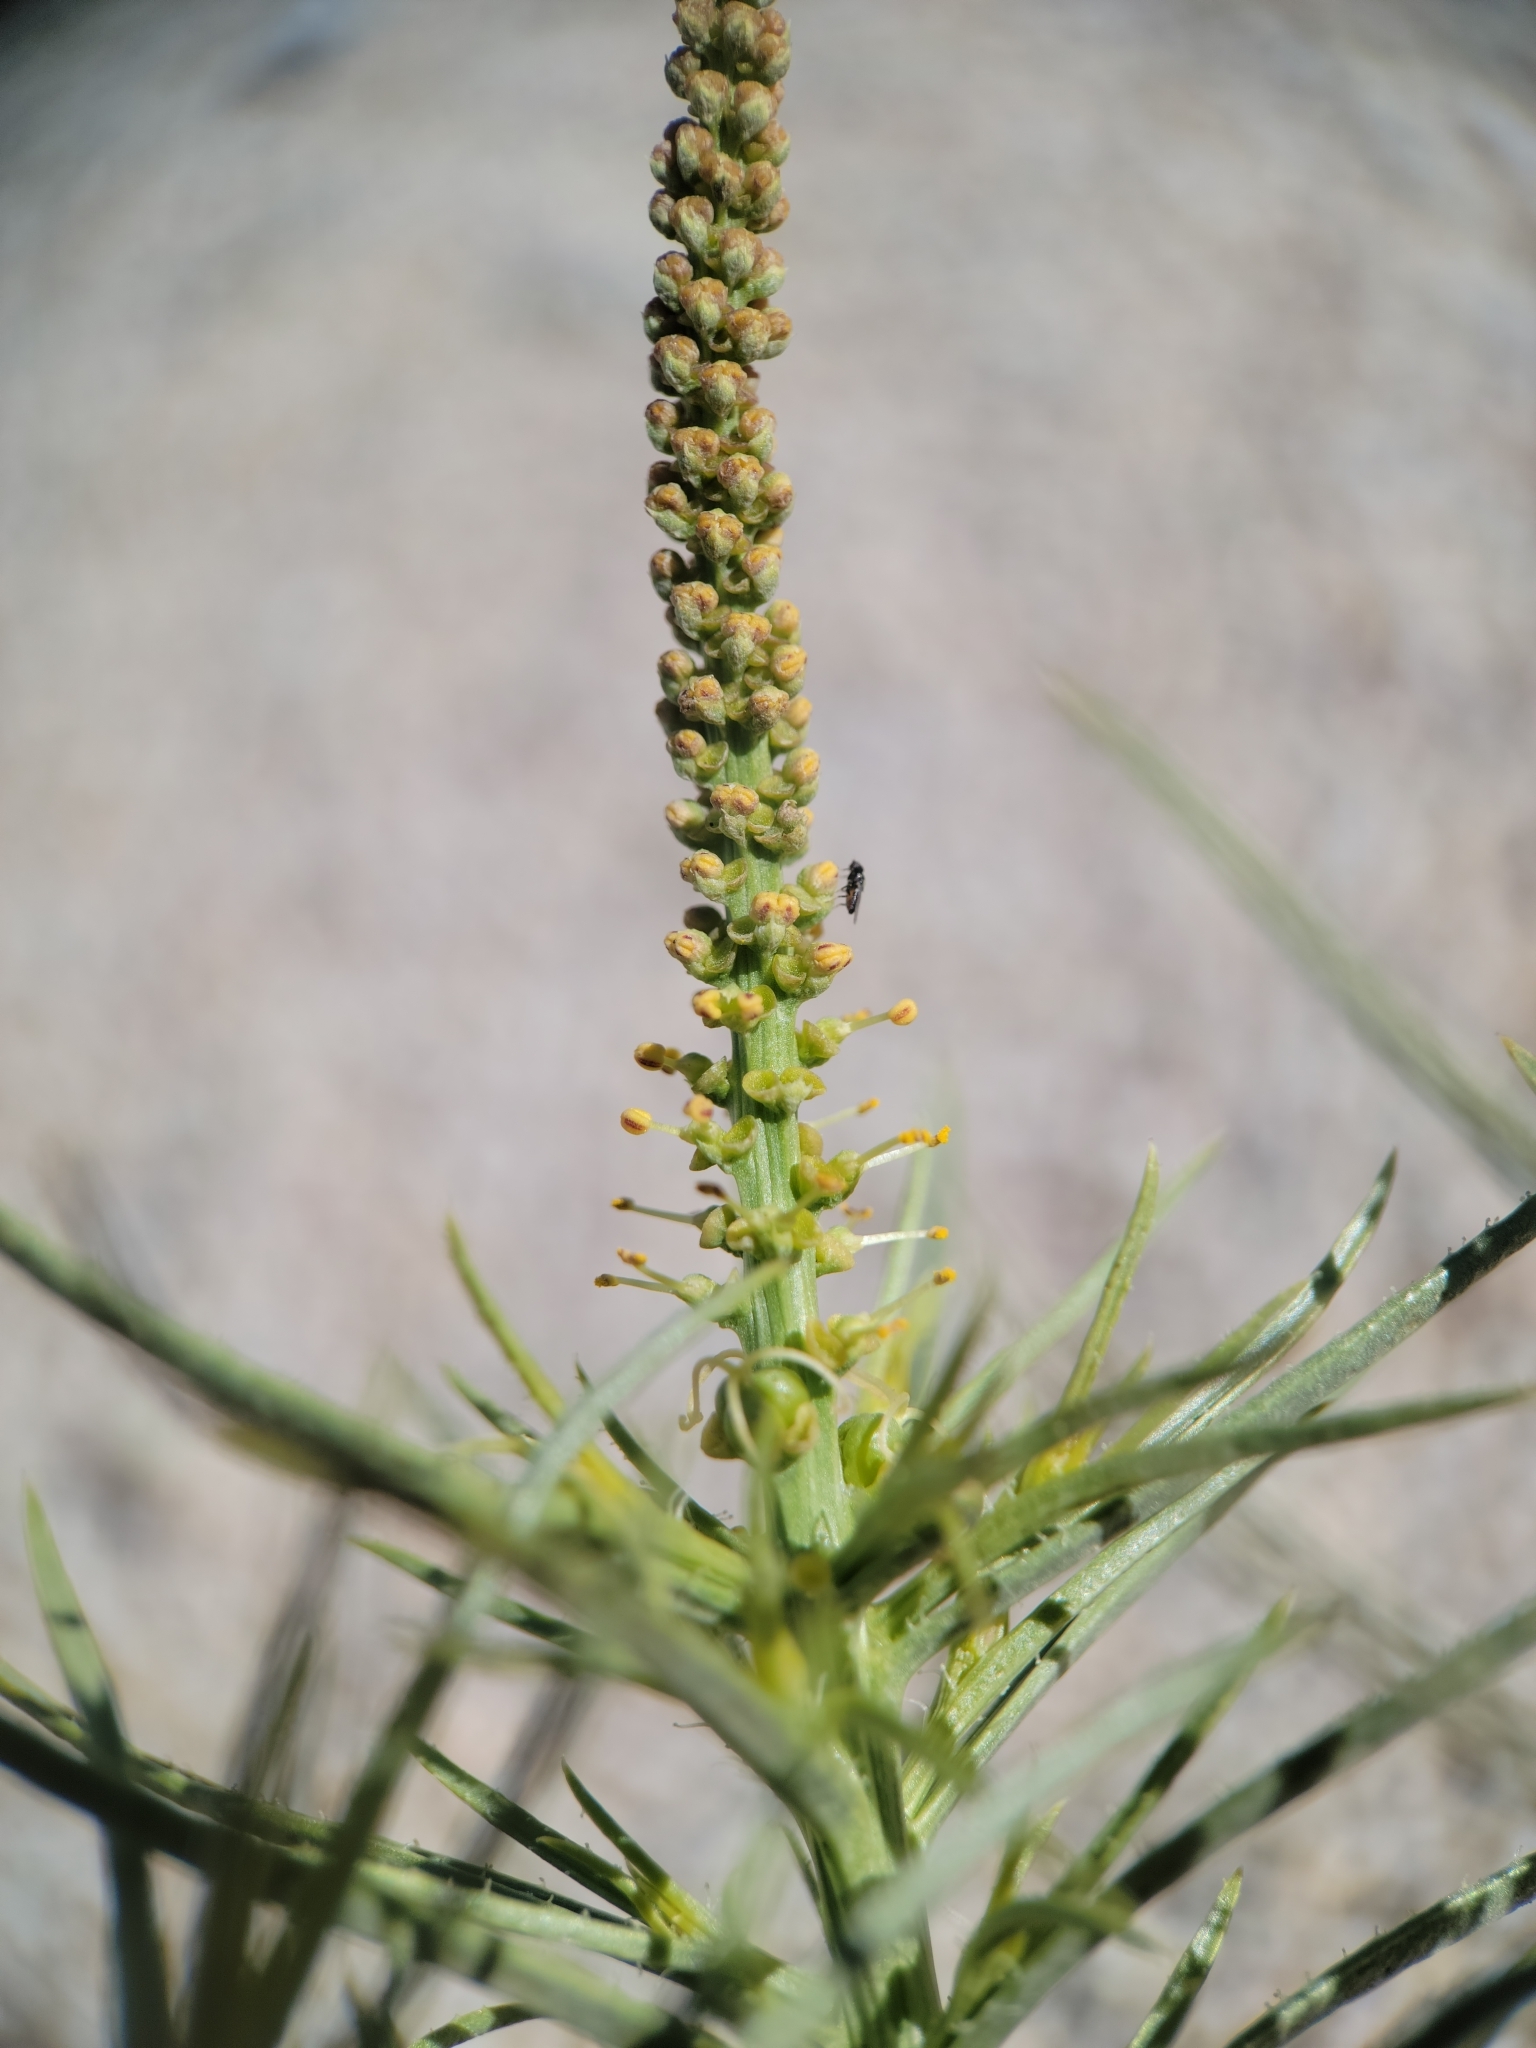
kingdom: Plantae
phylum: Tracheophyta
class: Magnoliopsida
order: Malpighiales
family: Euphorbiaceae
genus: Stillingia
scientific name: Stillingia paucidentata
